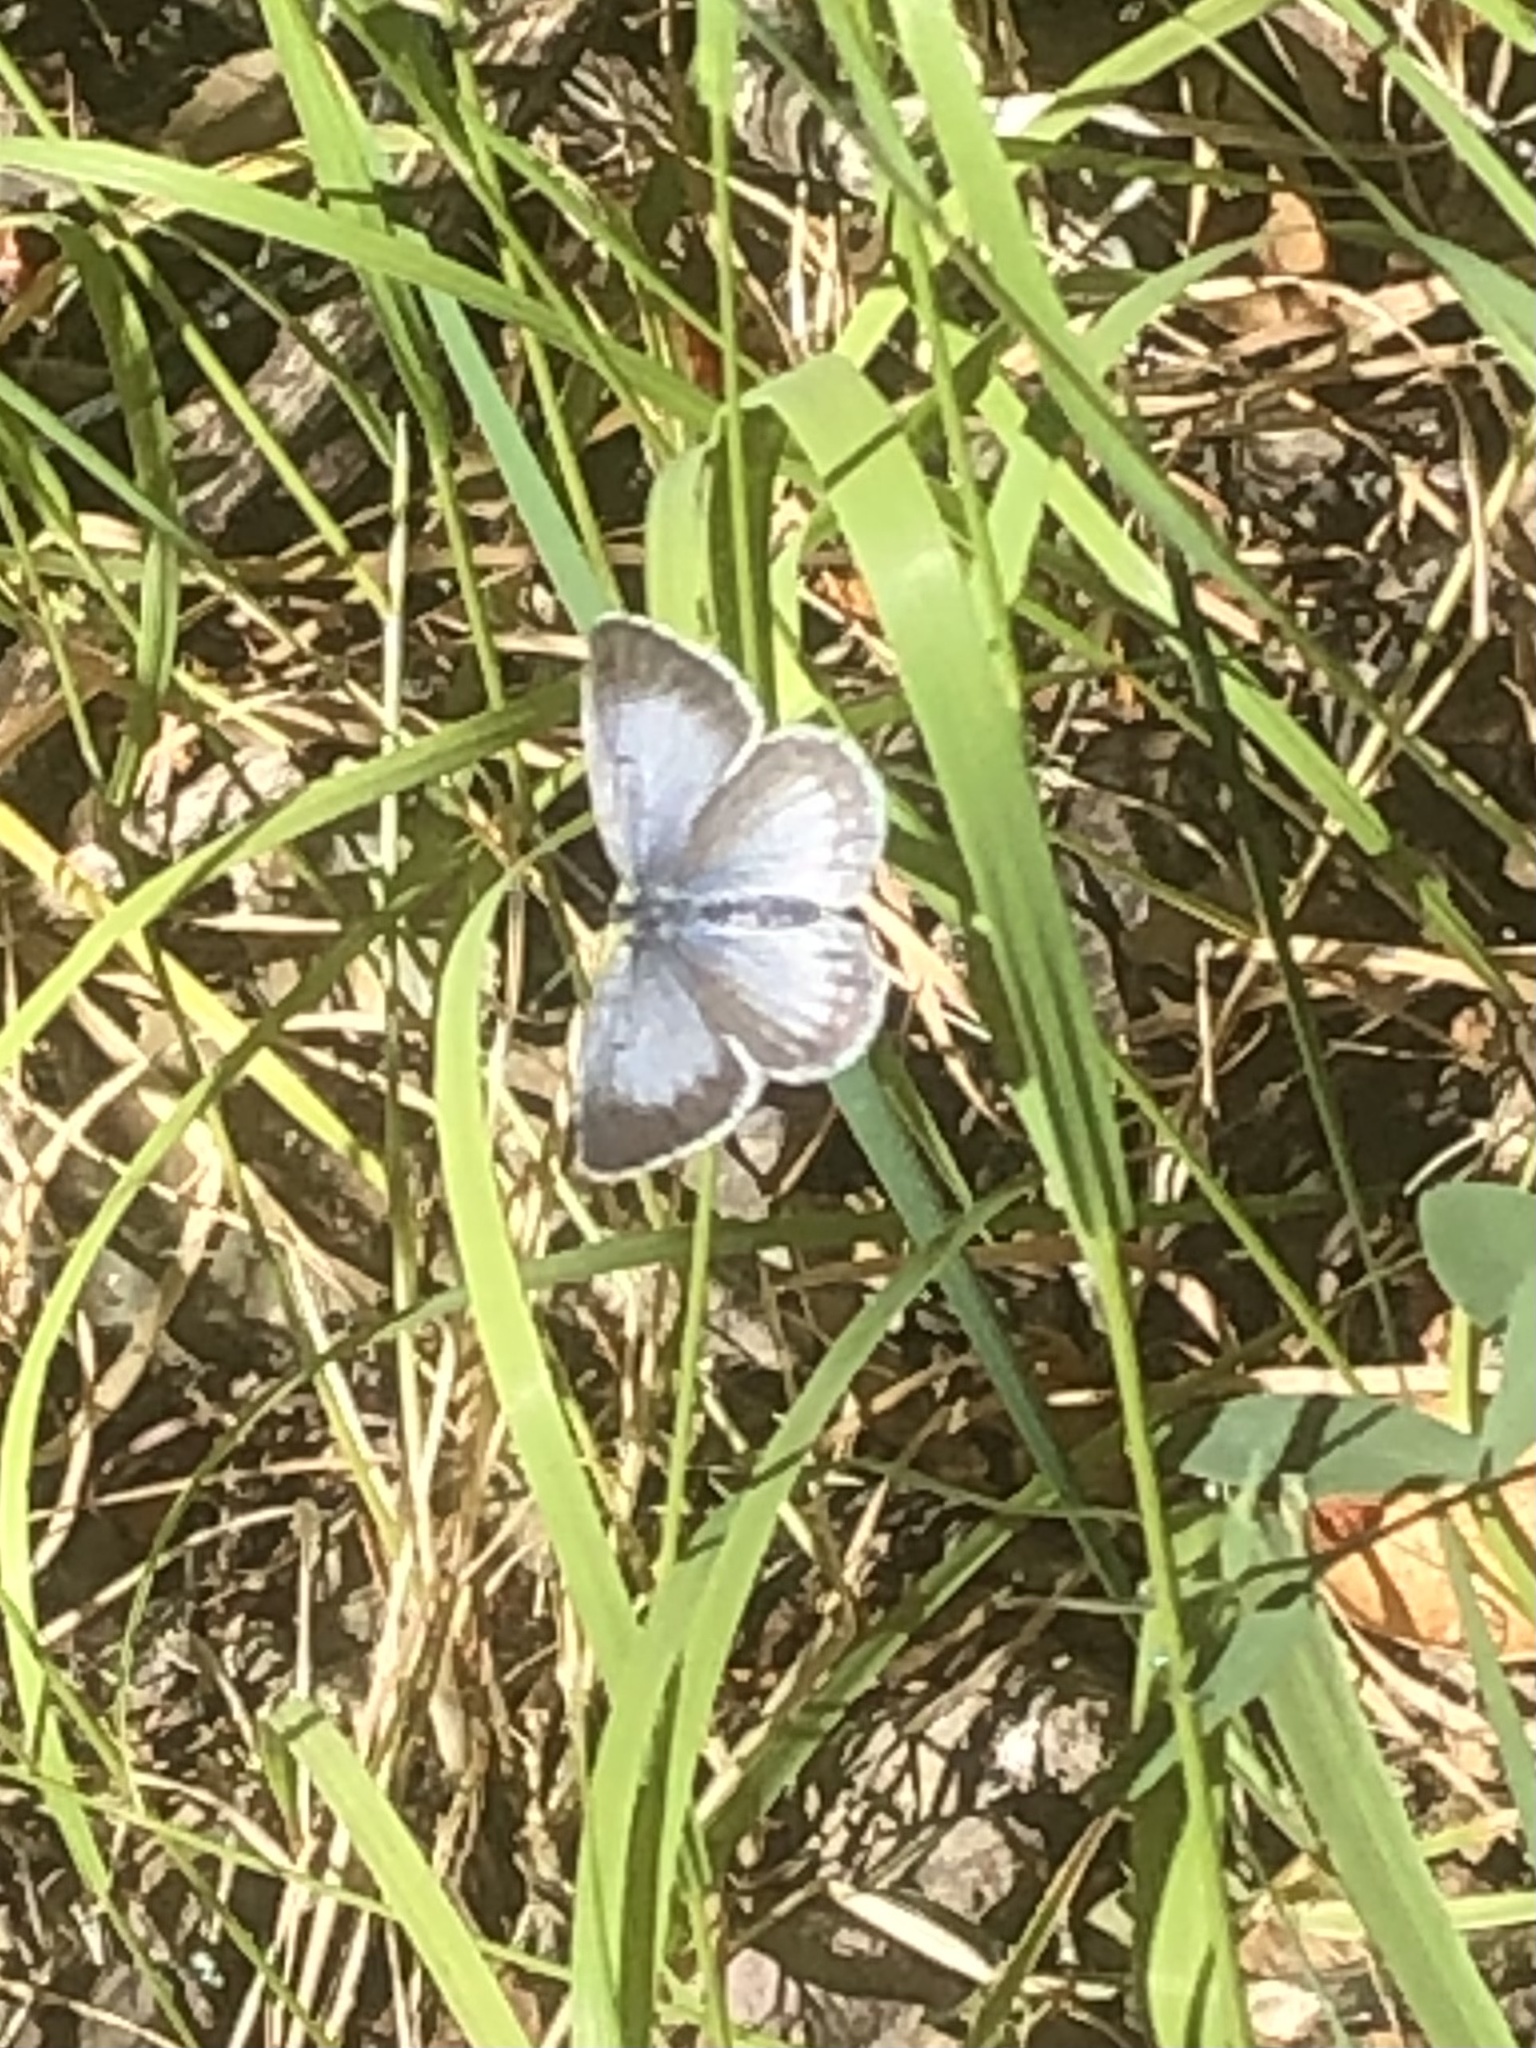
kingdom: Animalia
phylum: Arthropoda
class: Insecta
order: Lepidoptera
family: Lycaenidae
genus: Celastrina
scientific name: Celastrina ladon
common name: Spring azure
